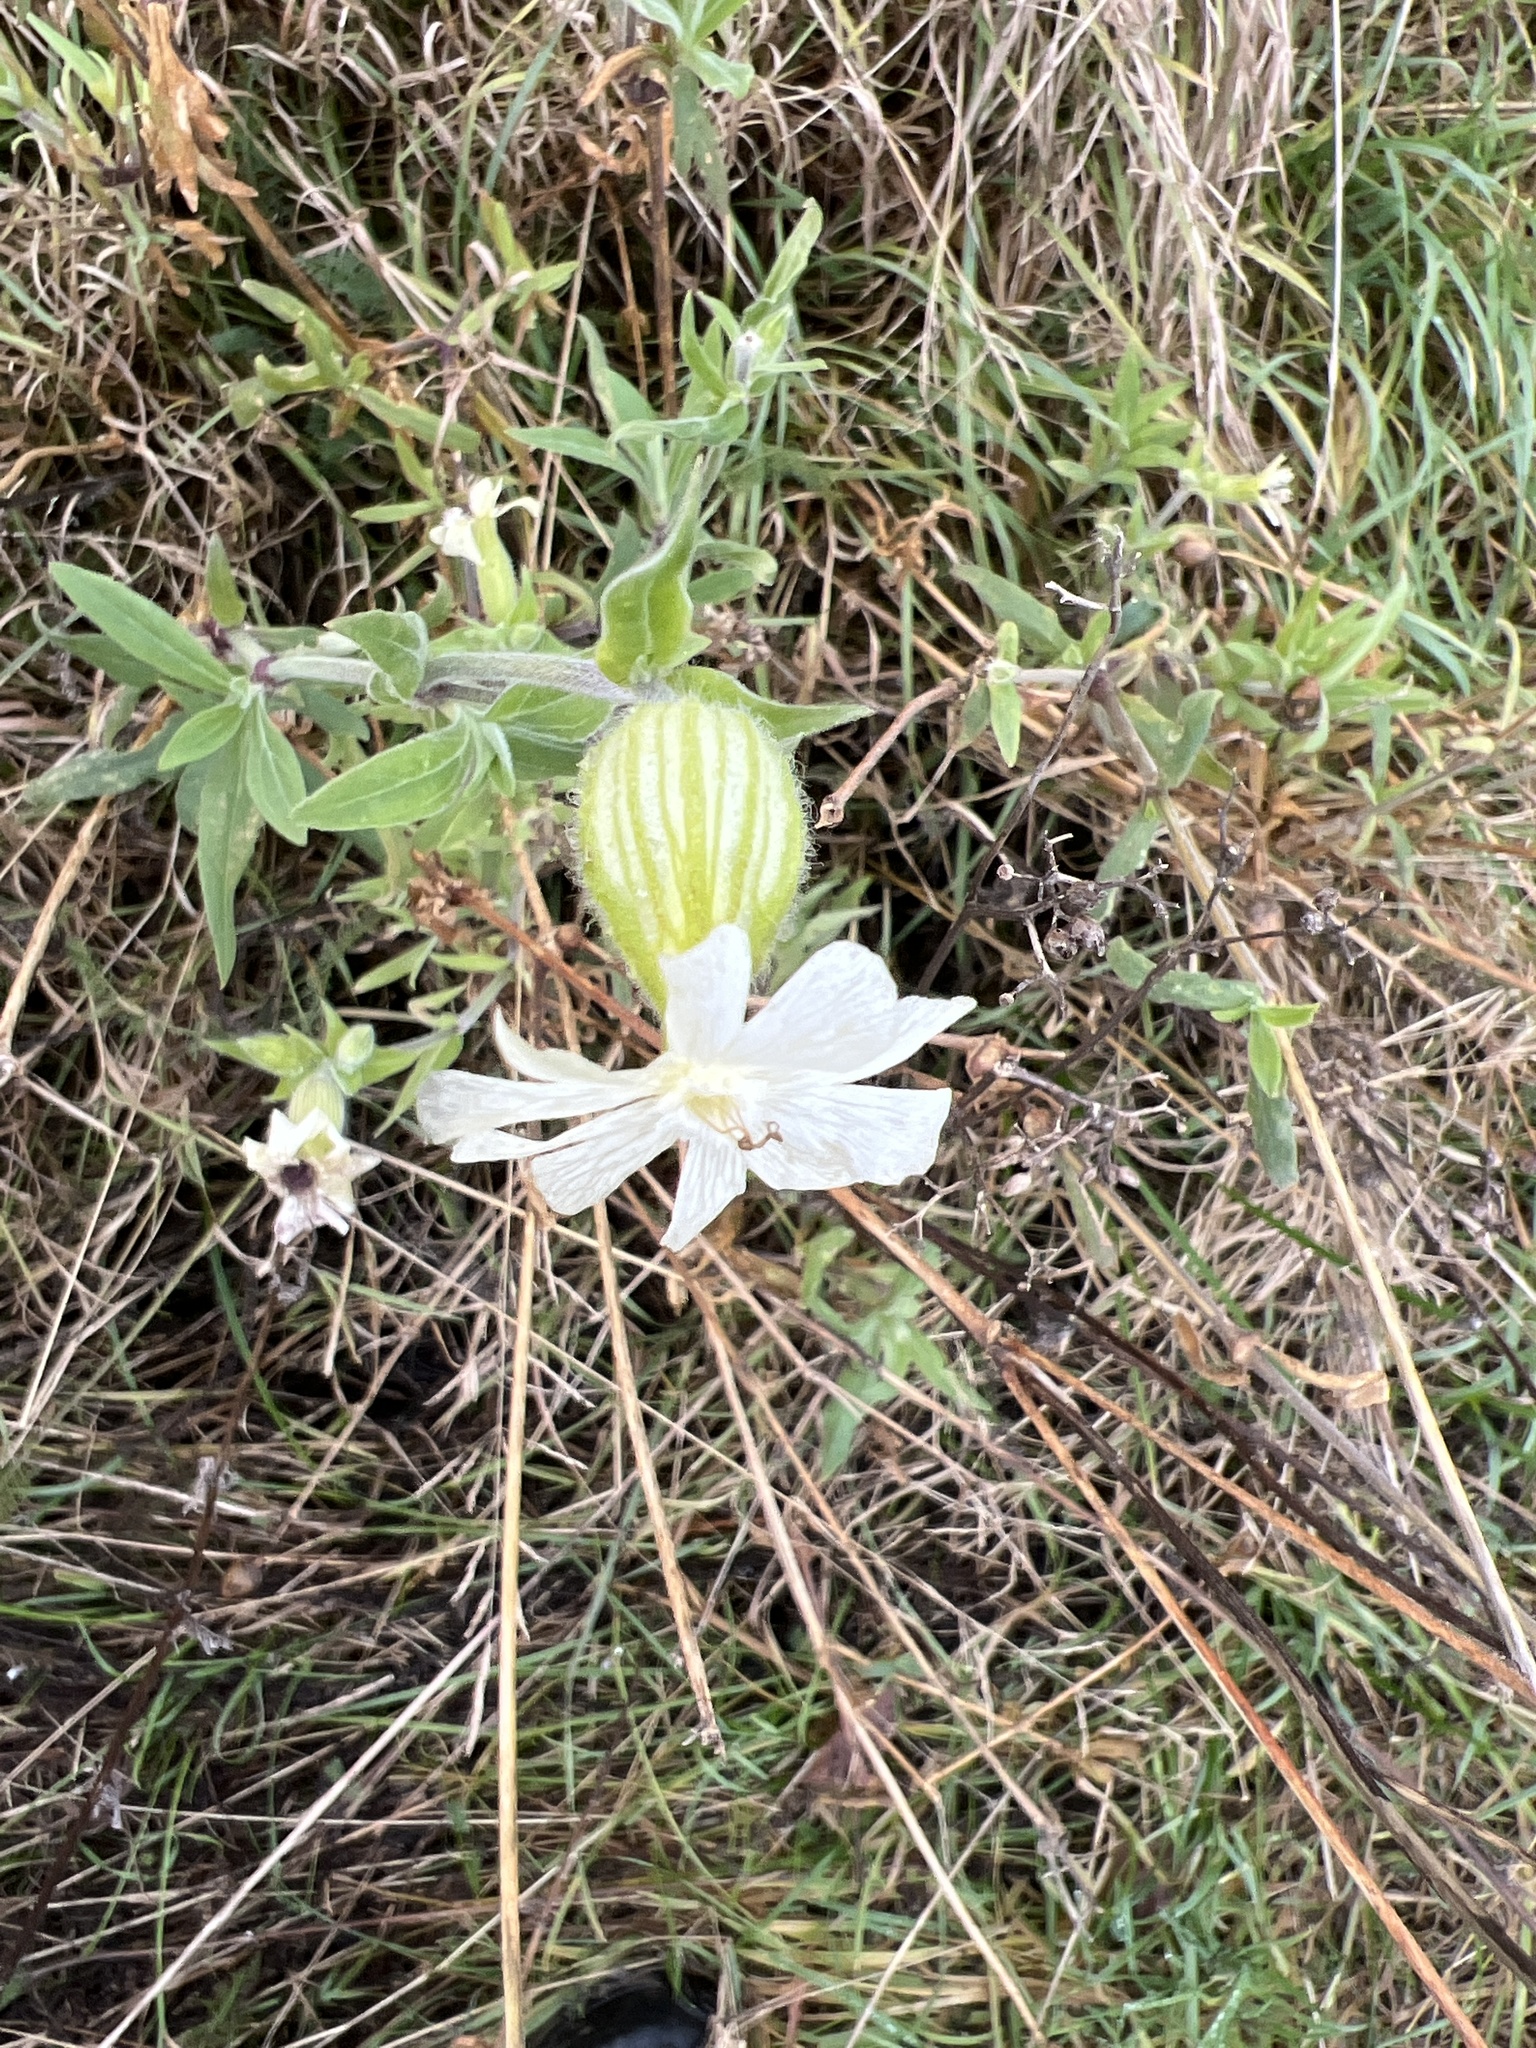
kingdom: Plantae
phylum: Tracheophyta
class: Magnoliopsida
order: Caryophyllales
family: Caryophyllaceae
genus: Silene
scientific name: Silene latifolia
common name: White campion
